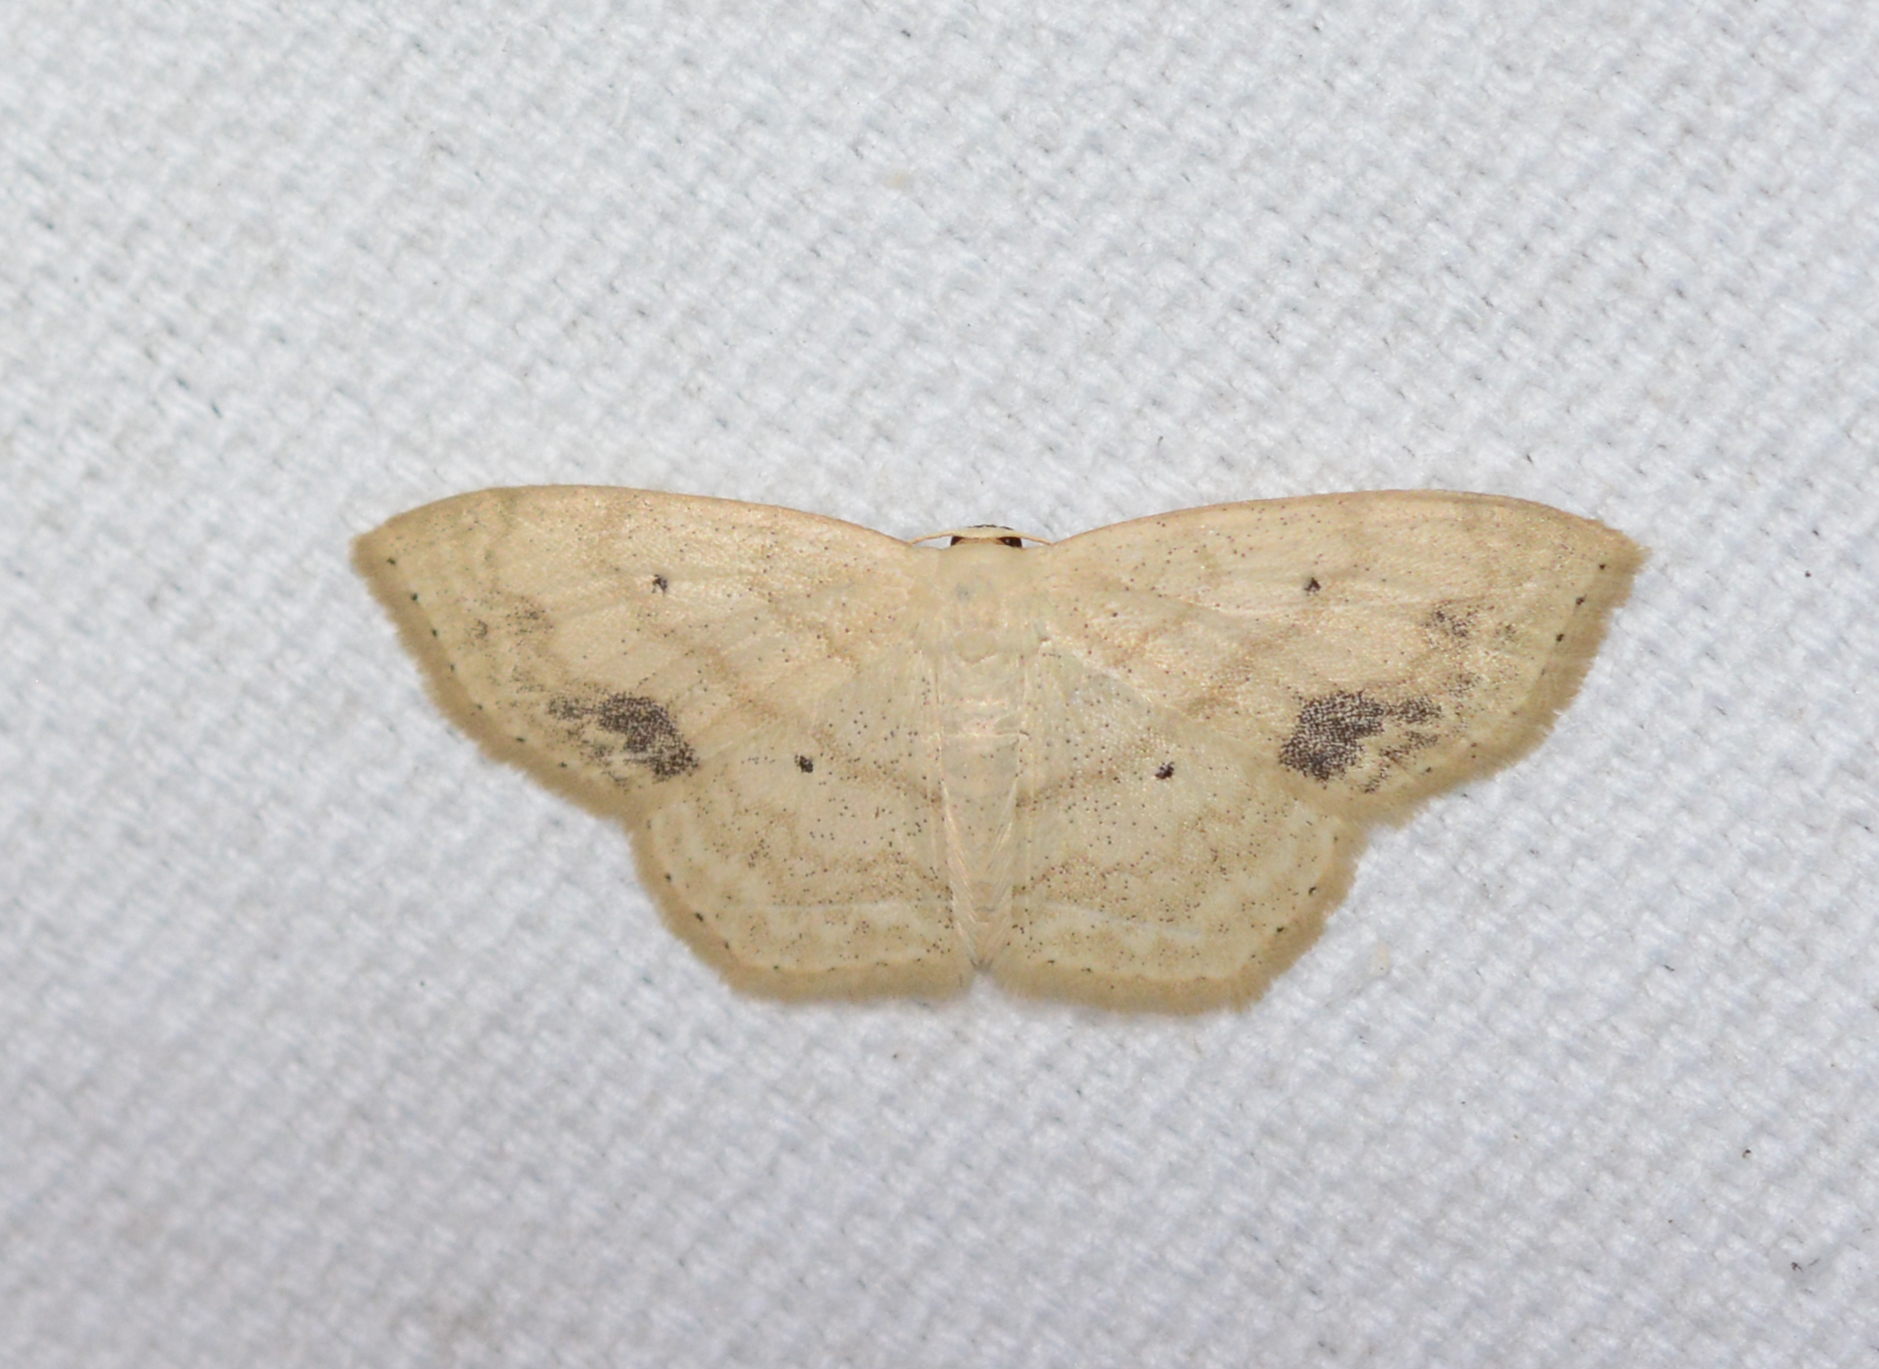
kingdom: Animalia
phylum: Arthropoda
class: Insecta
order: Lepidoptera
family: Geometridae
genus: Scopula
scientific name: Scopula limboundata
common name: Large lace border
